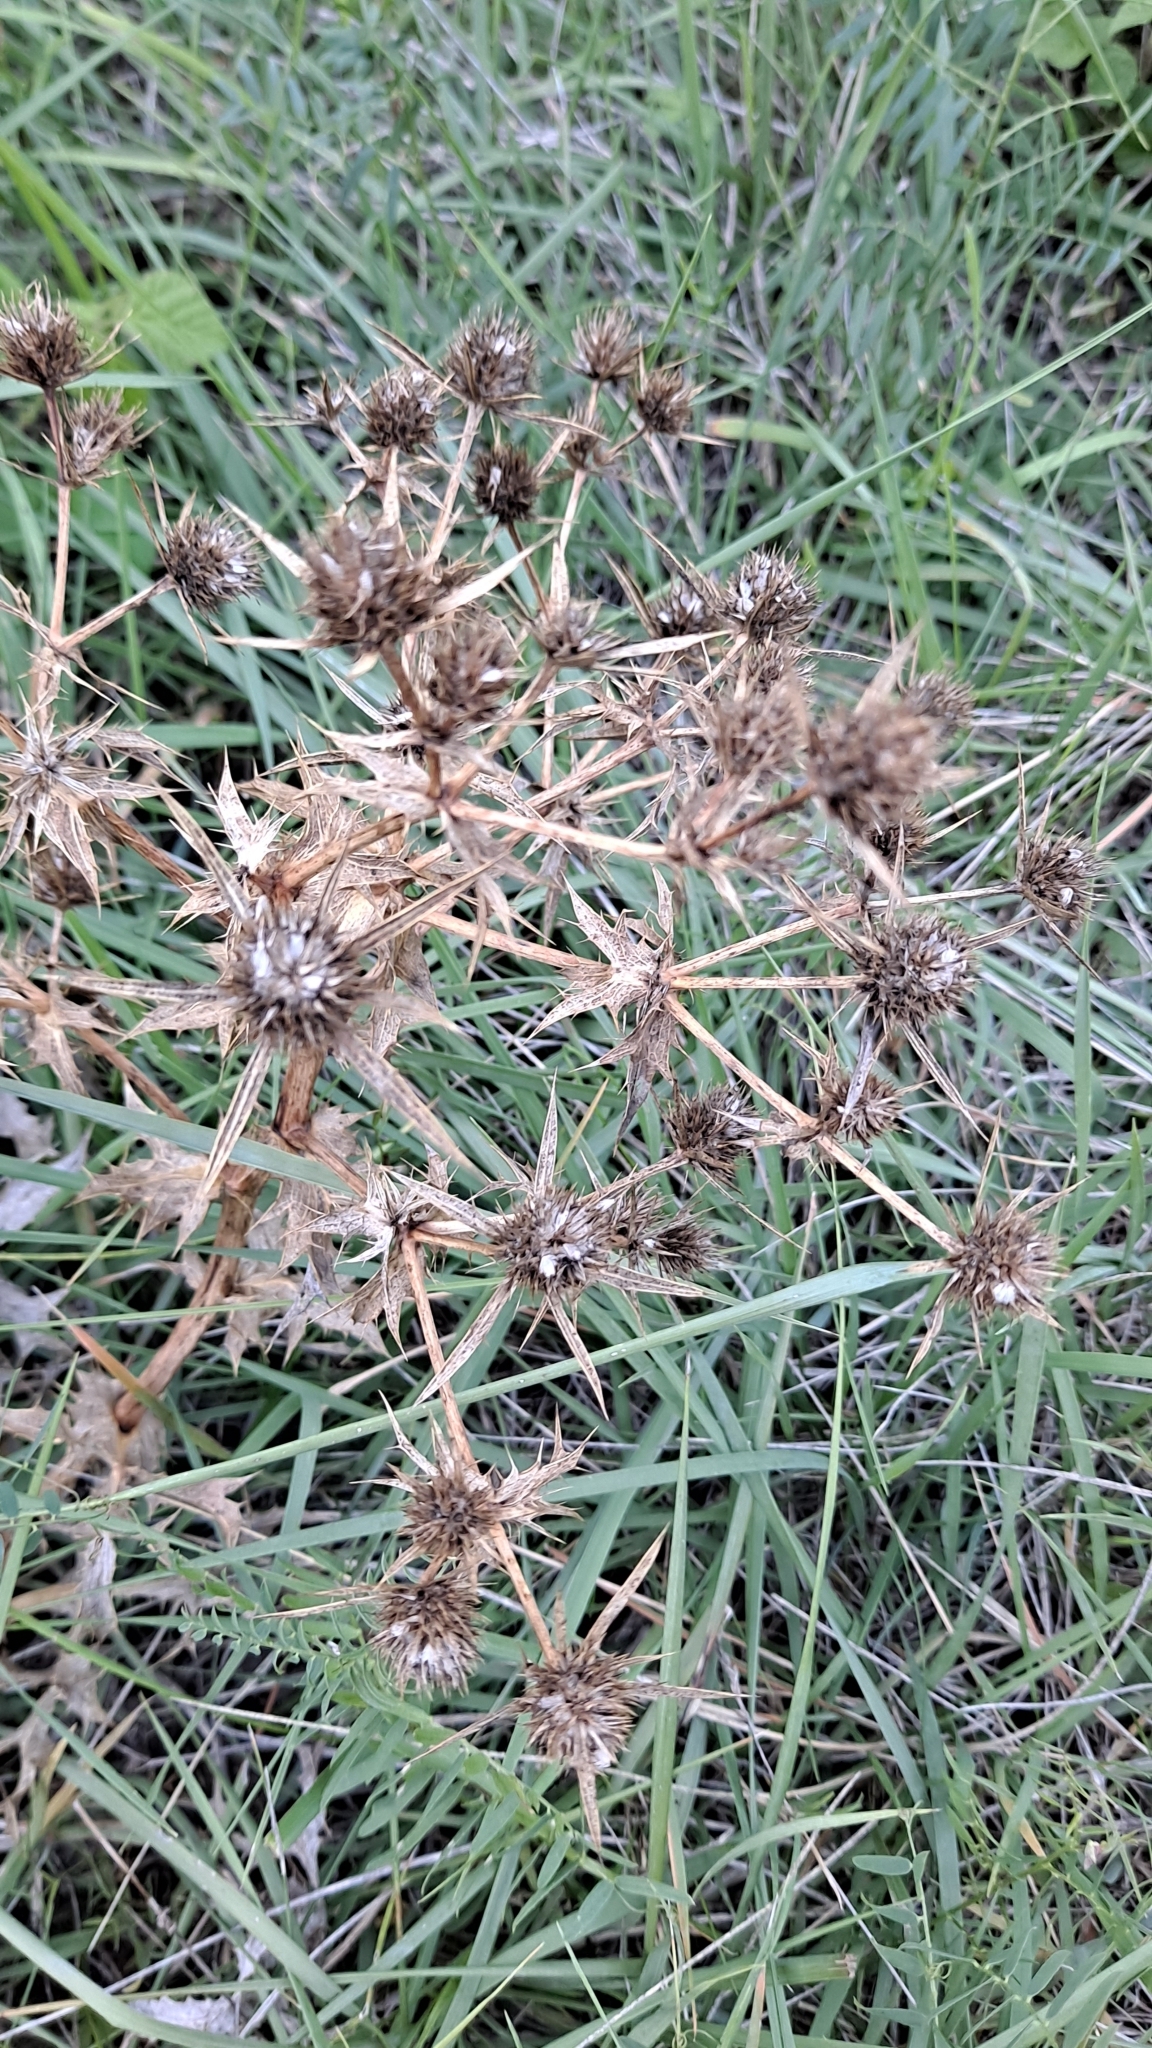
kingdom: Plantae
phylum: Tracheophyta
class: Magnoliopsida
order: Apiales
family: Apiaceae
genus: Eryngium
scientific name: Eryngium campestre
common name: Field eryngo
